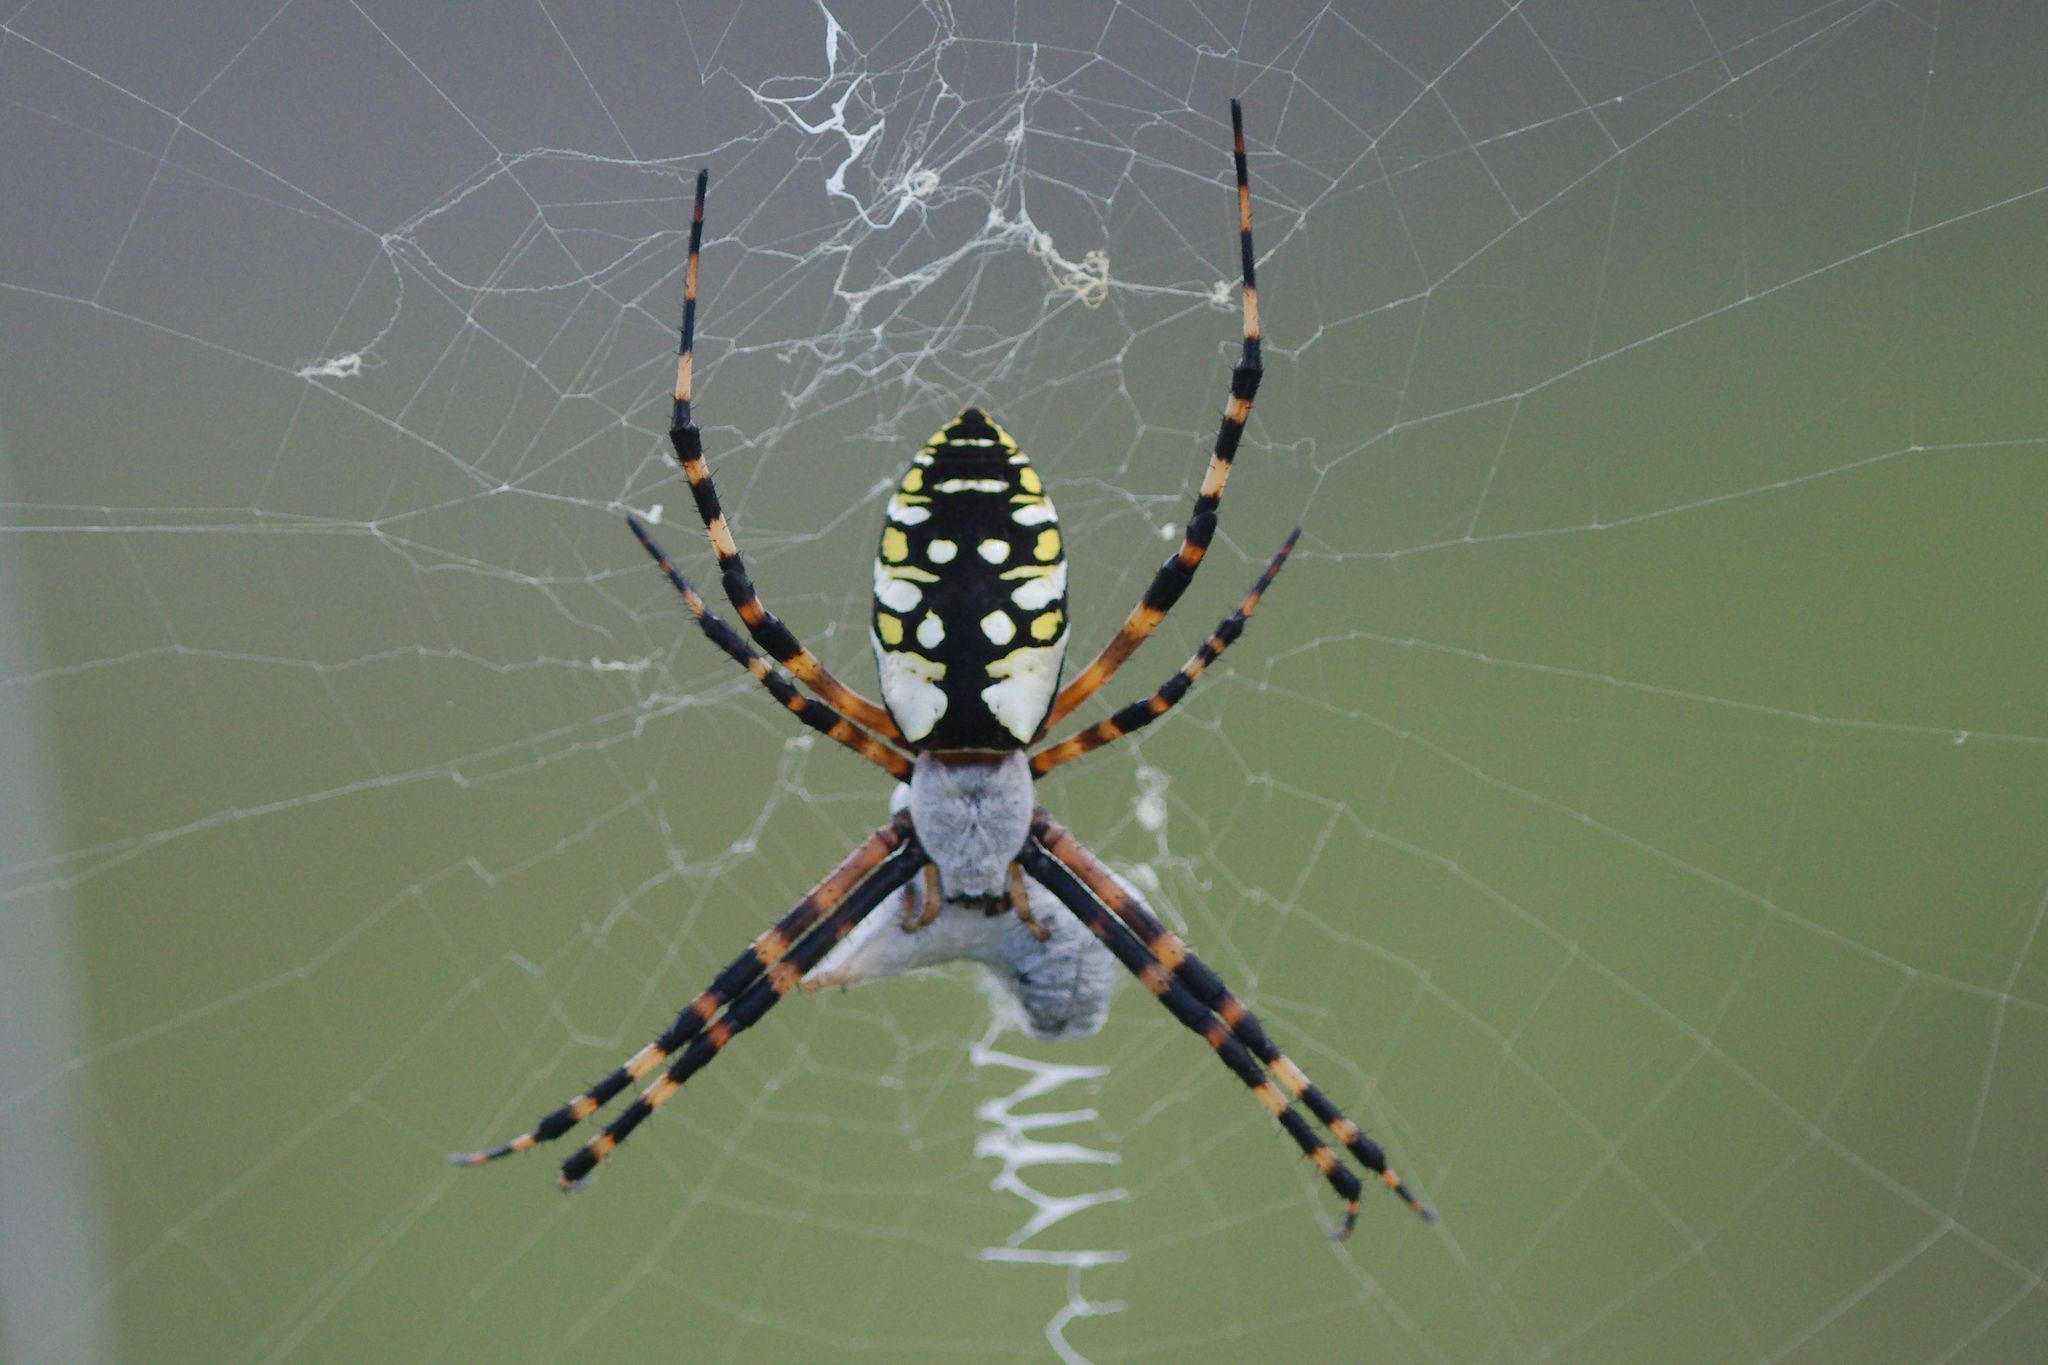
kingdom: Animalia
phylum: Arthropoda
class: Arachnida
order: Araneae
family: Araneidae
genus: Argiope
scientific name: Argiope aurantia
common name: Orb weavers
